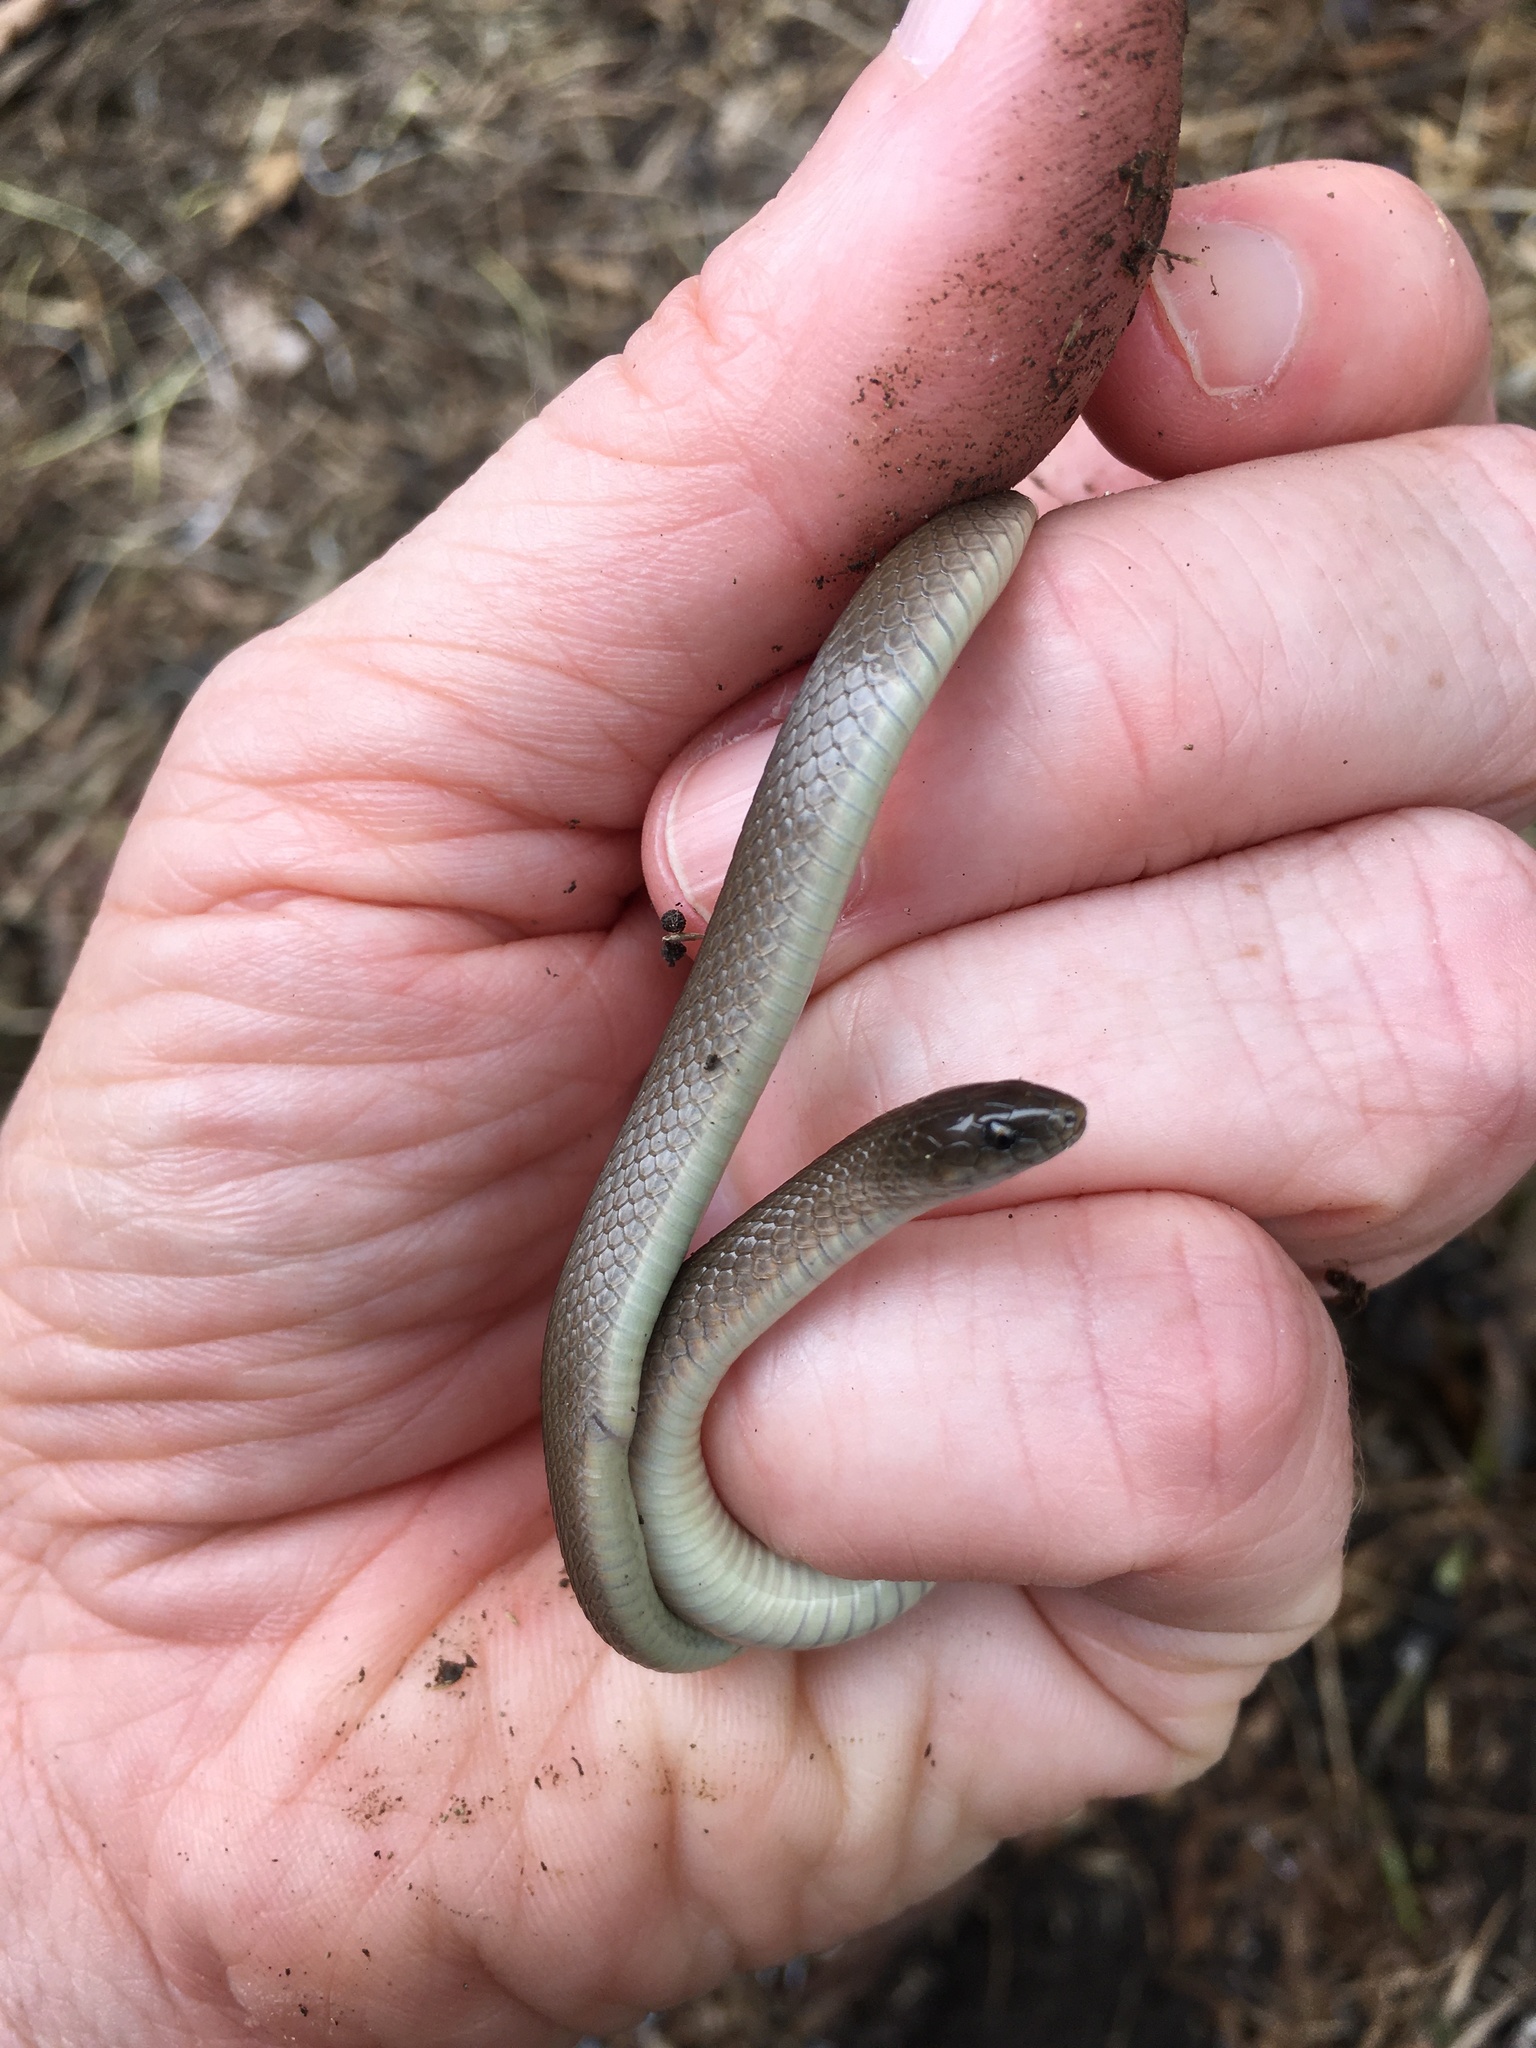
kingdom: Animalia
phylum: Chordata
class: Squamata
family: Colubridae
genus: Haldea
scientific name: Haldea striatula
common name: Rough earth snake
